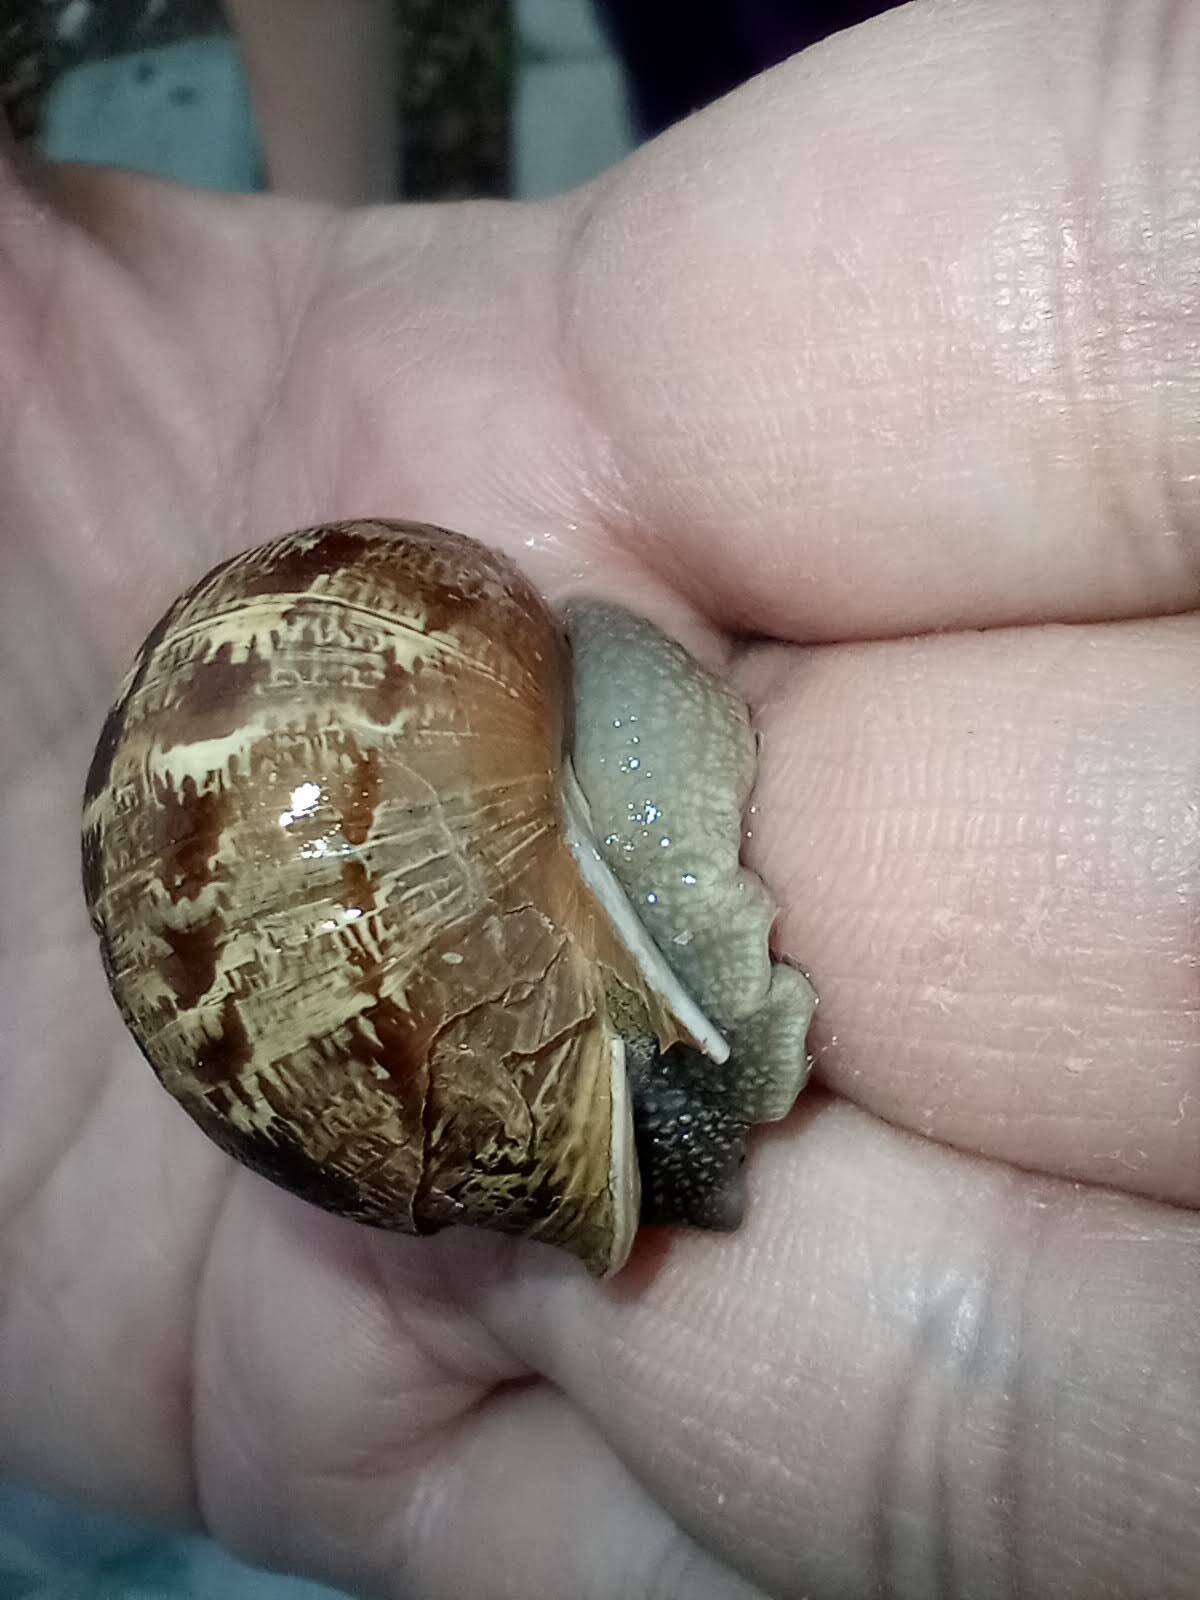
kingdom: Animalia
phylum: Mollusca
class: Gastropoda
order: Stylommatophora
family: Helicidae
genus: Cornu
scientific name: Cornu aspersum
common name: Brown garden snail
